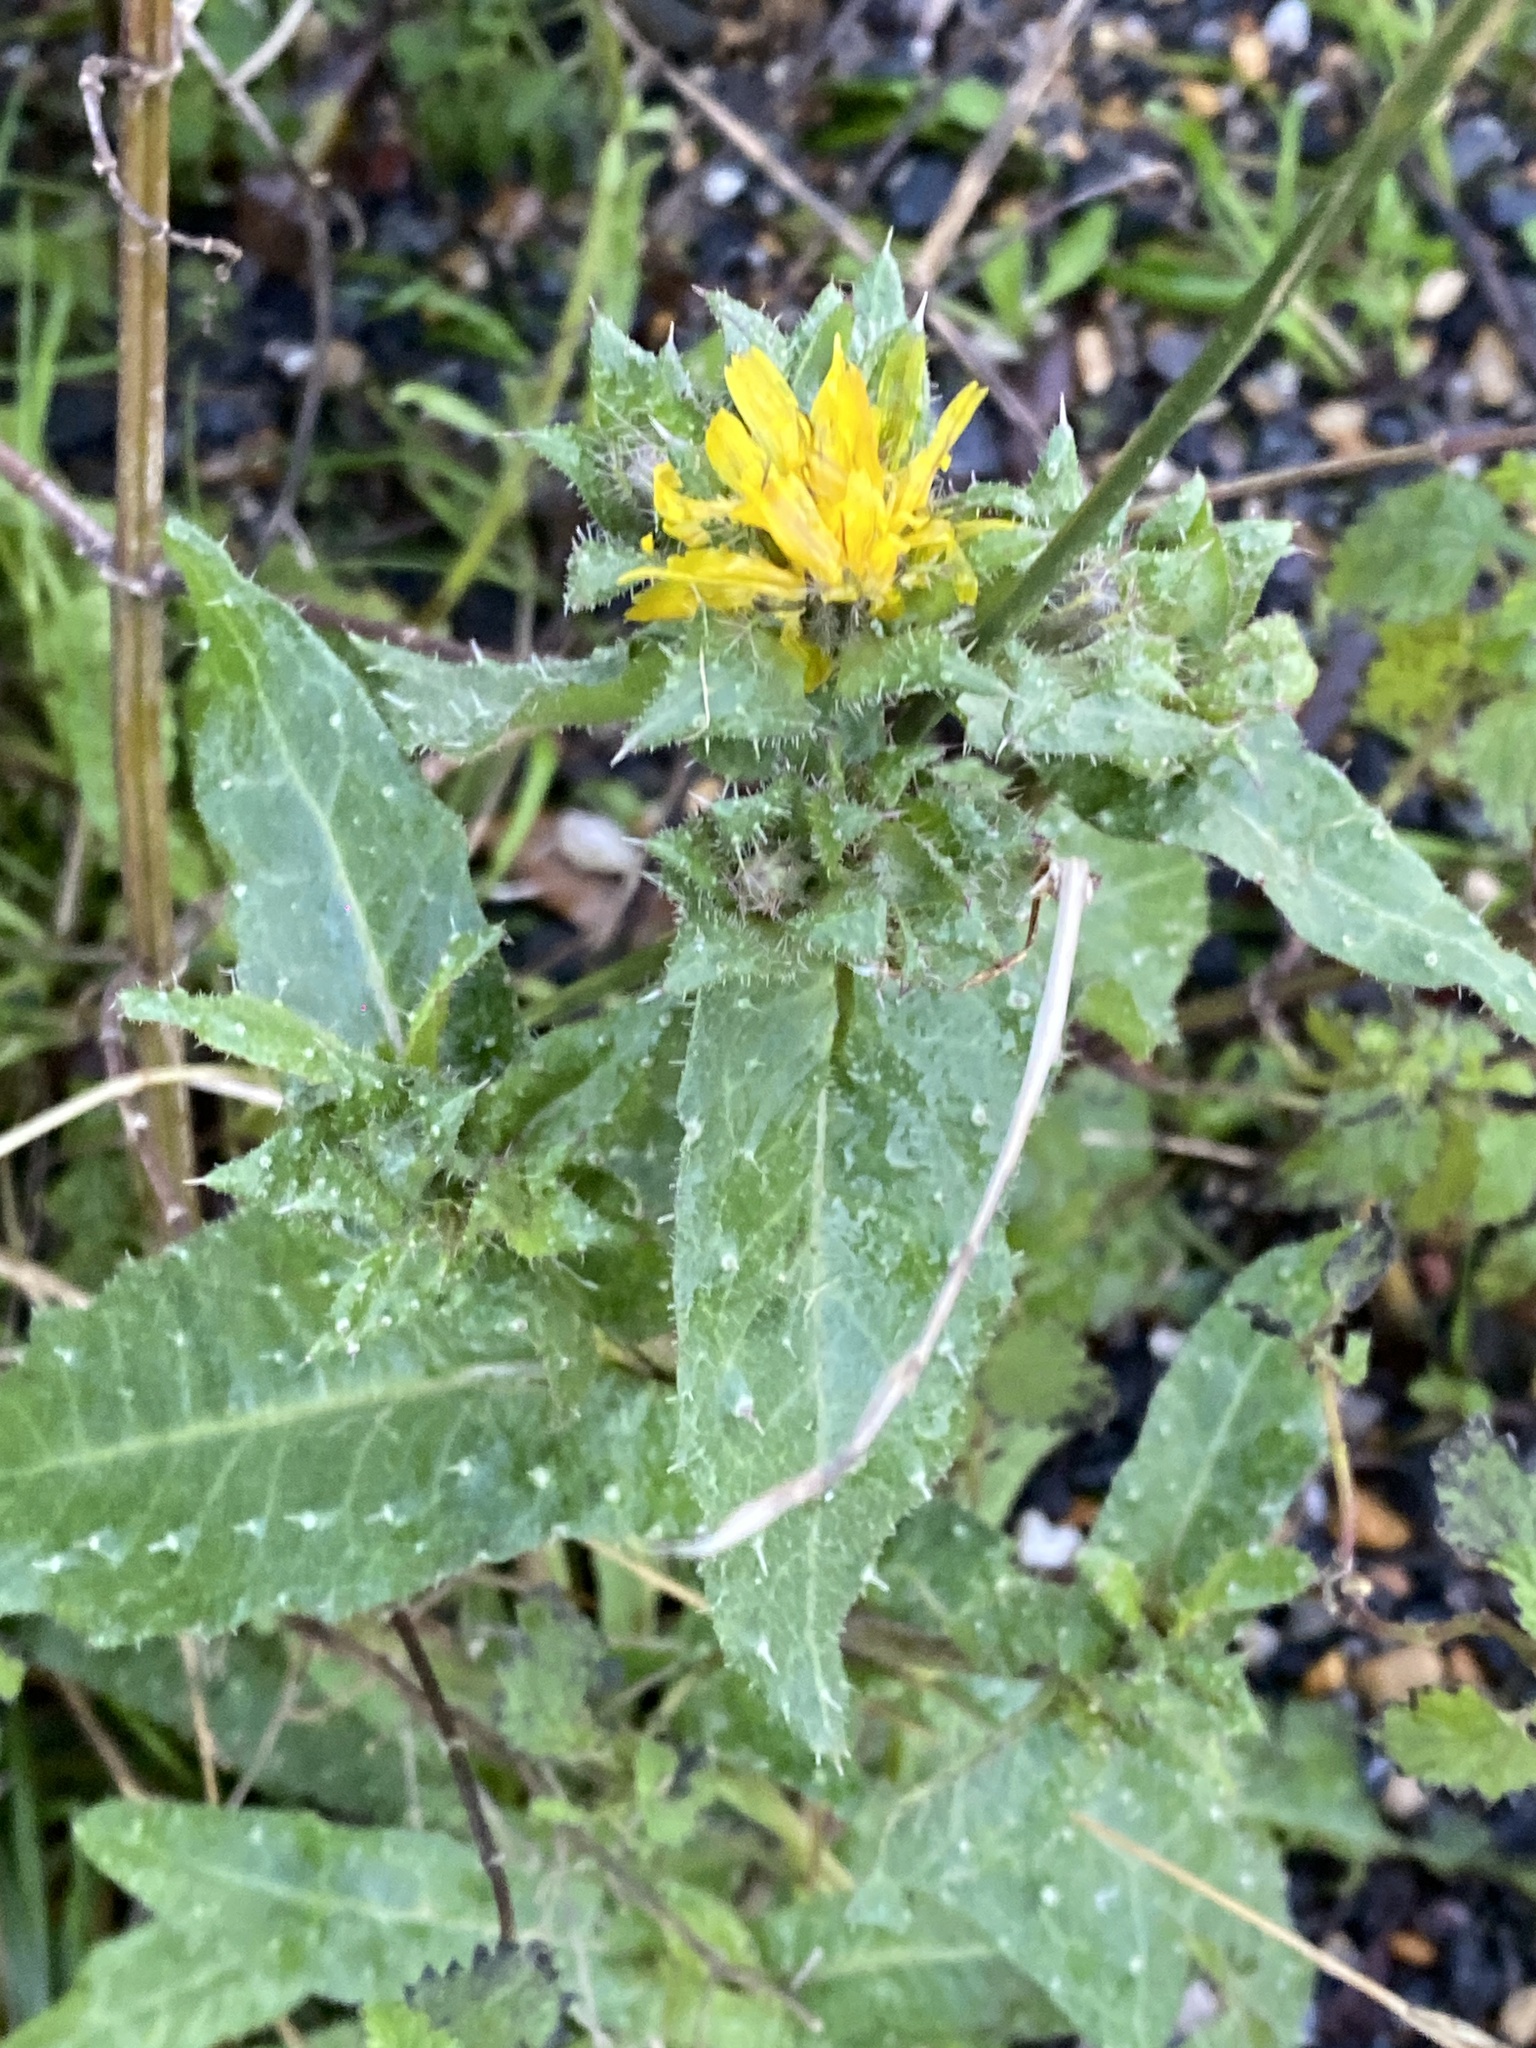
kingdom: Plantae
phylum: Tracheophyta
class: Magnoliopsida
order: Asterales
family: Asteraceae
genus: Helminthotheca
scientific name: Helminthotheca echioides
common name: Ox-tongue
